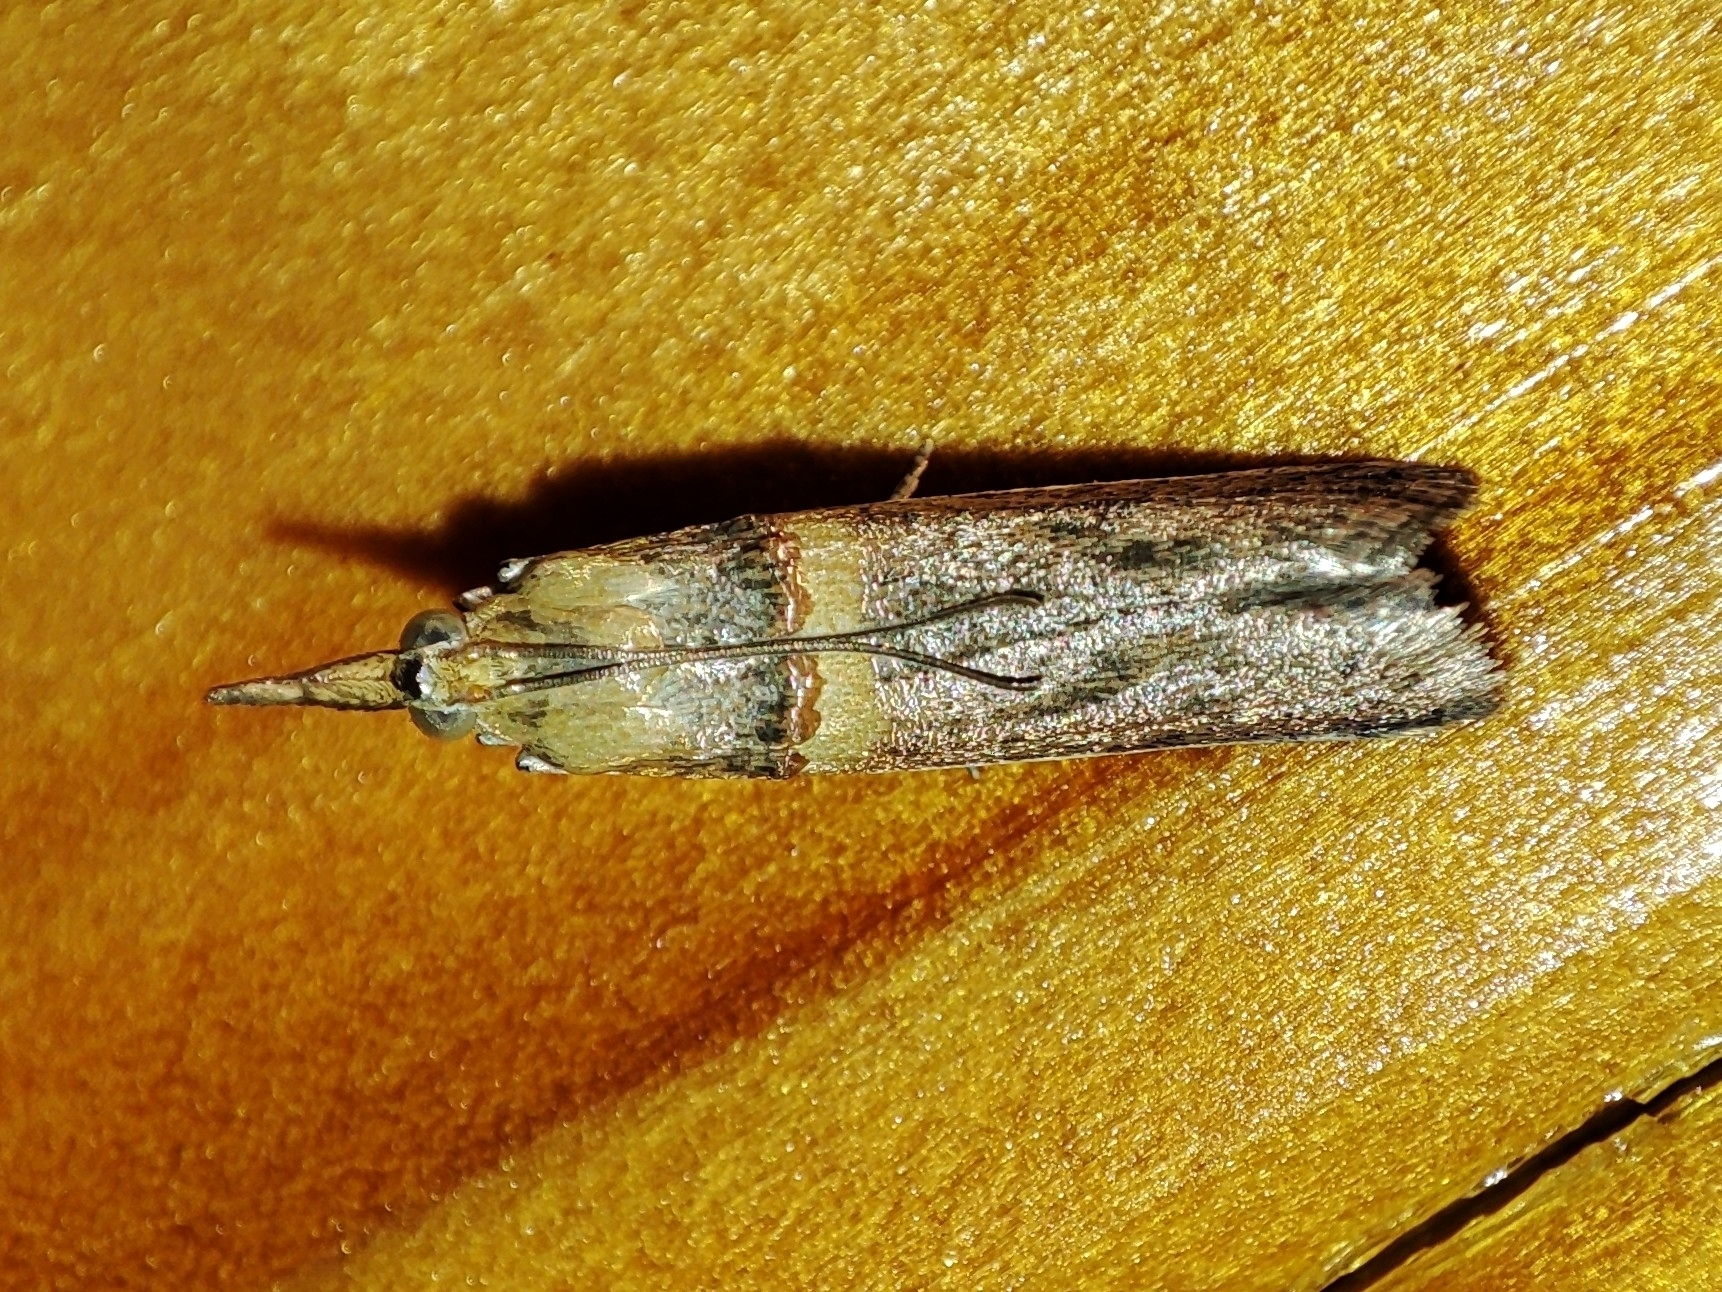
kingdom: Animalia
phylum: Arthropoda
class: Insecta
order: Lepidoptera
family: Pyralidae
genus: Etiella
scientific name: Etiella zinckenella
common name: Gold-banded etiella moth
